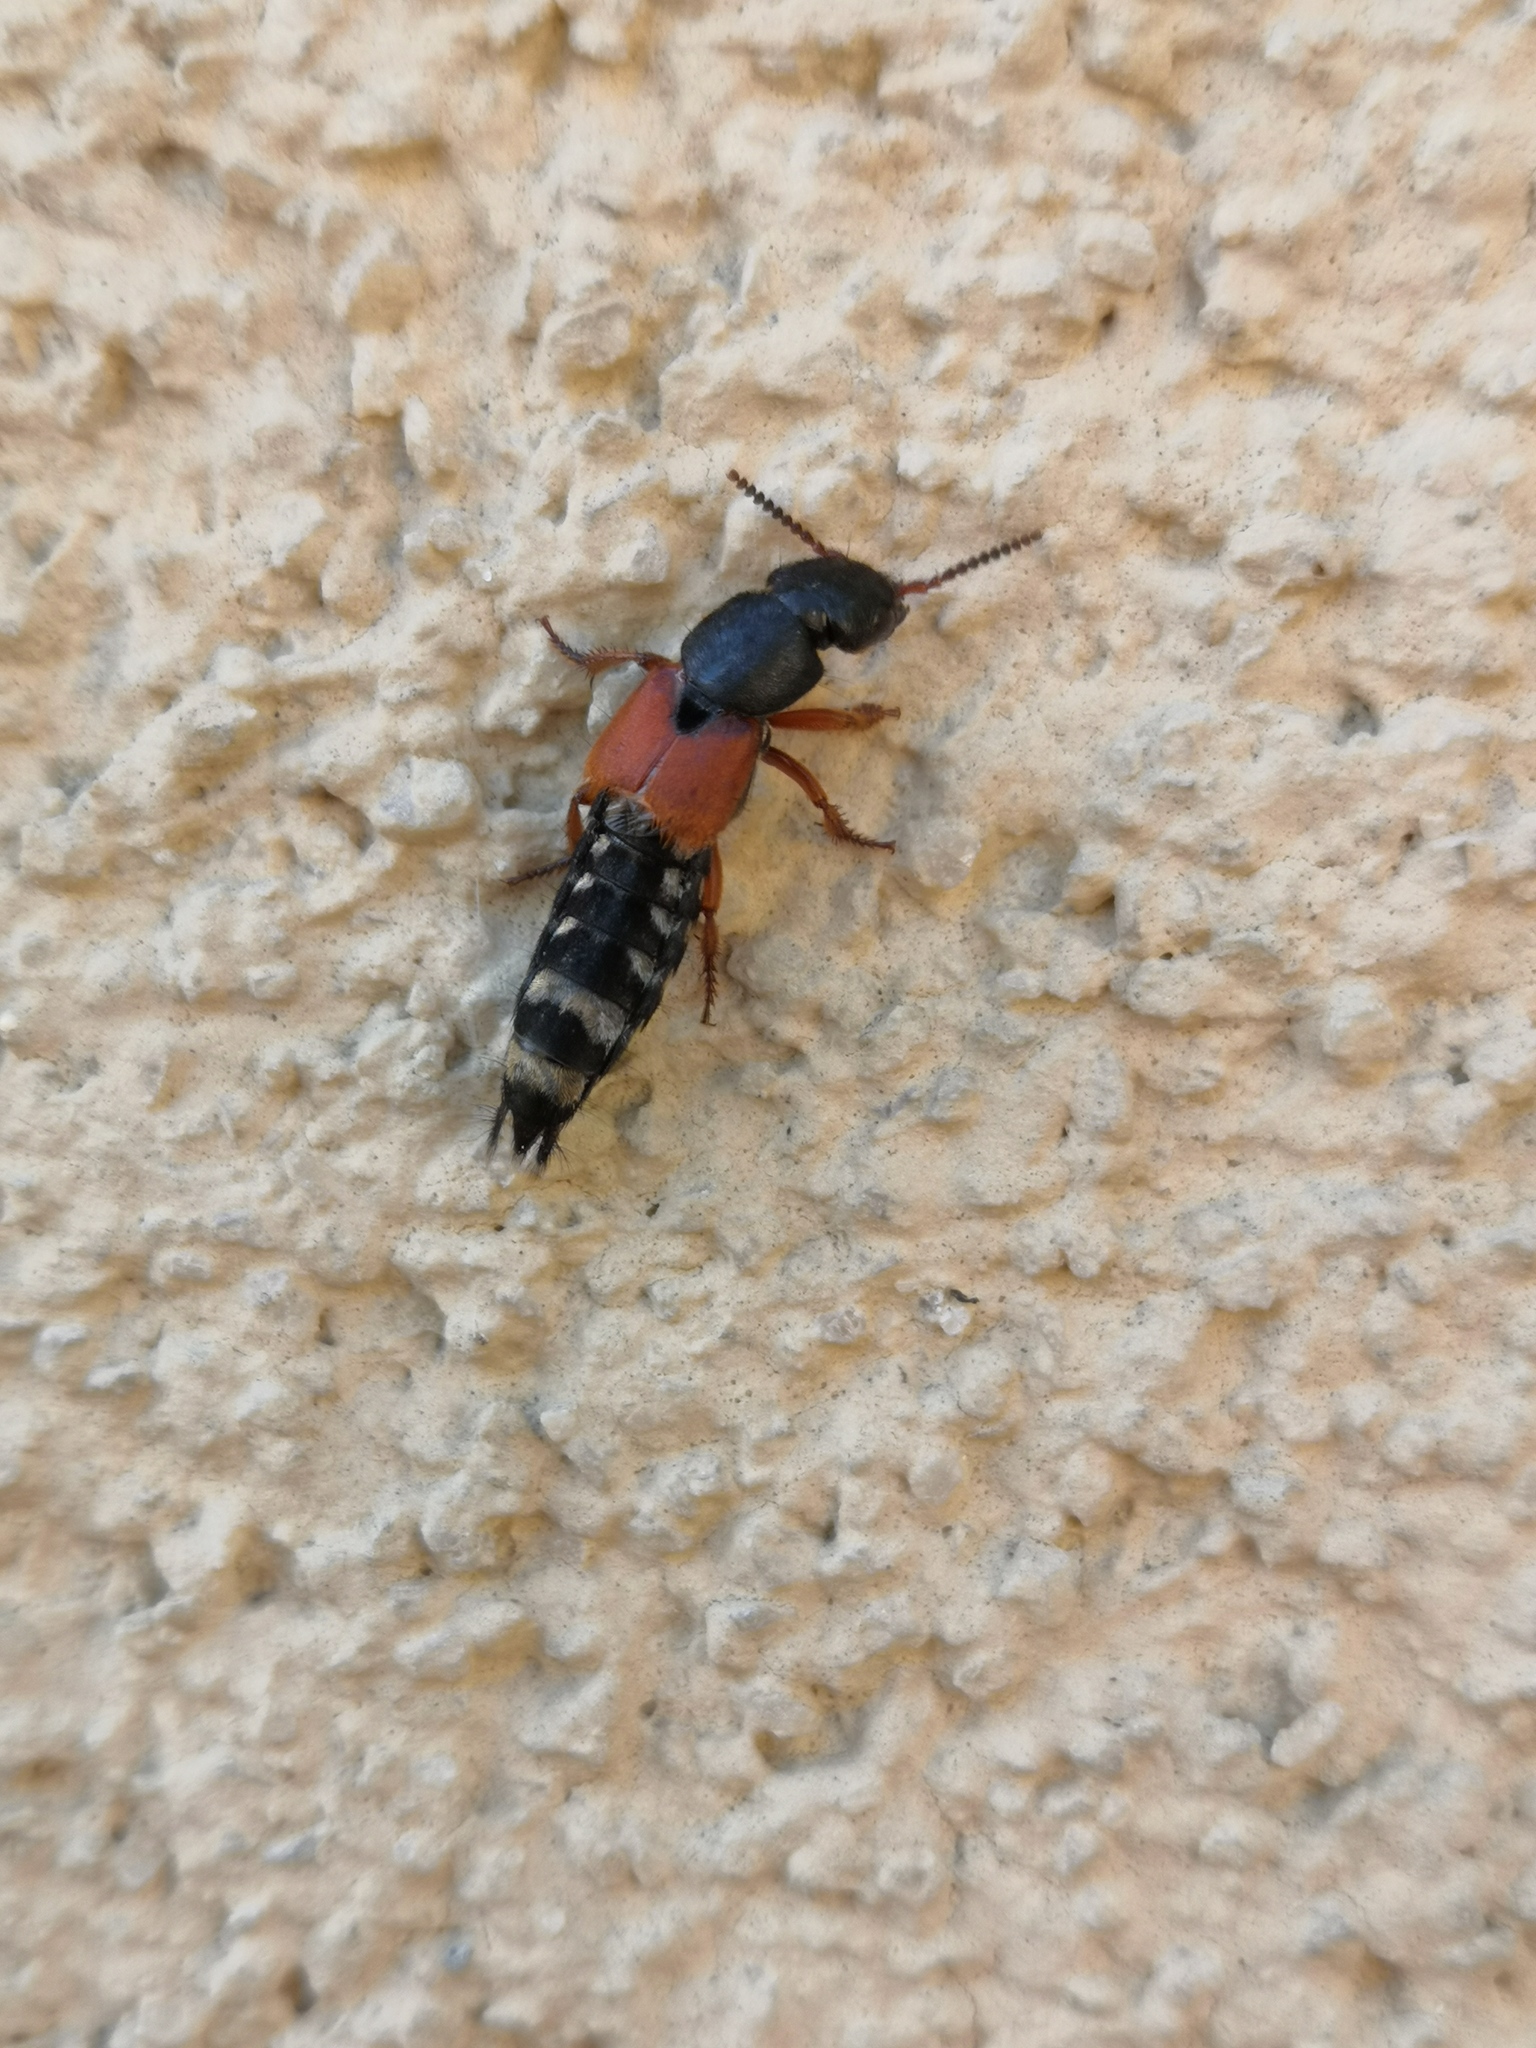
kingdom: Animalia
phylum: Arthropoda
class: Insecta
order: Coleoptera
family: Staphylinidae
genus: Platydracus
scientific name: Platydracus stercorarius
